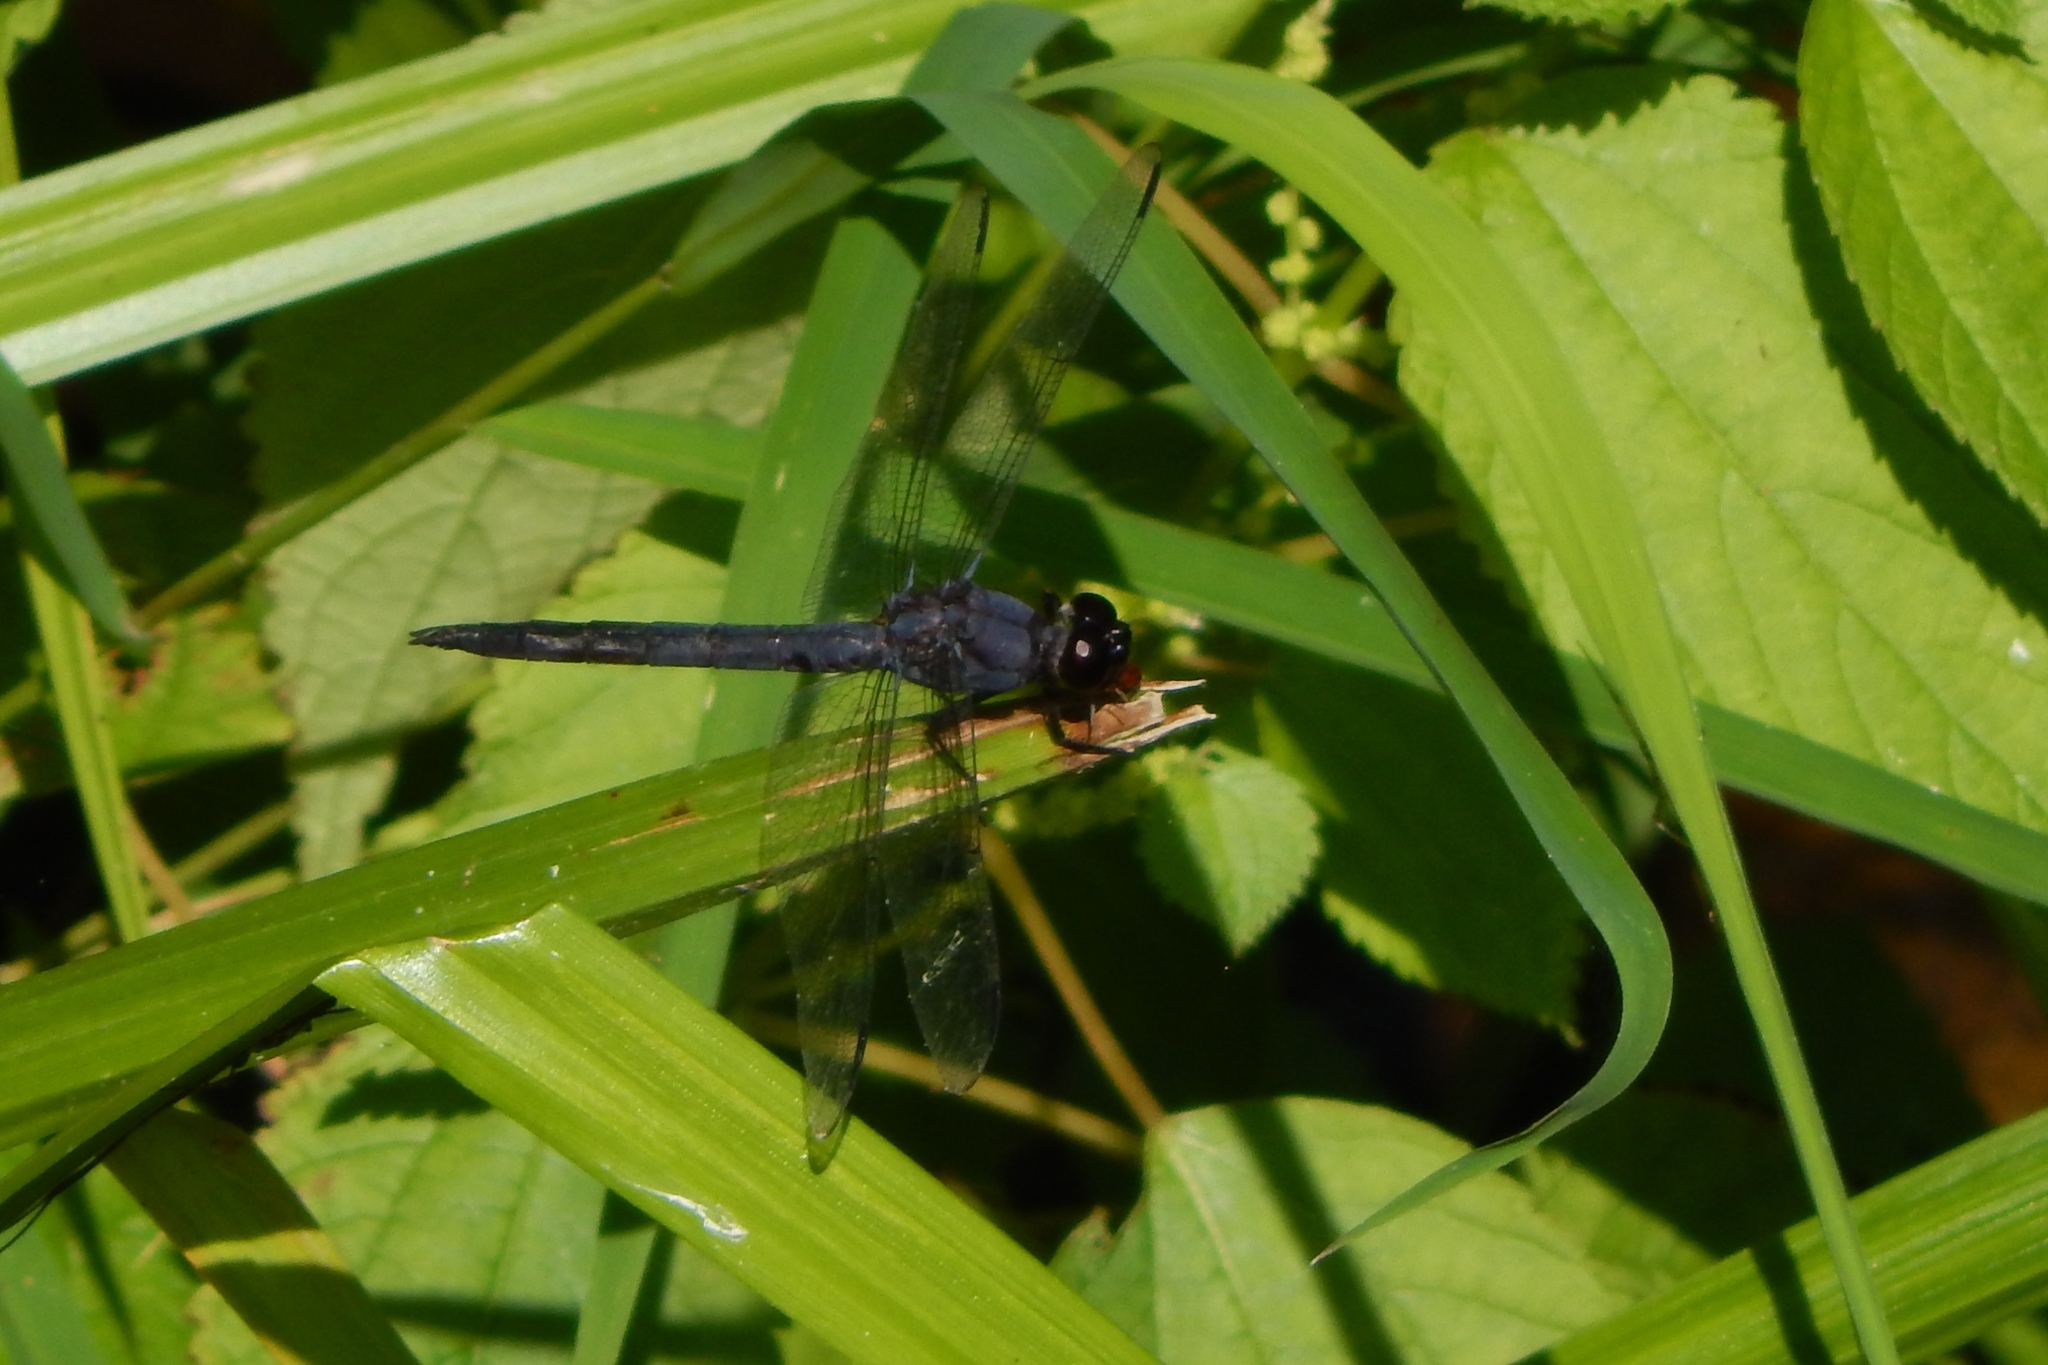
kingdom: Animalia
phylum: Arthropoda
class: Insecta
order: Odonata
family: Libellulidae
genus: Libellula
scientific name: Libellula incesta
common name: Slaty skimmer
